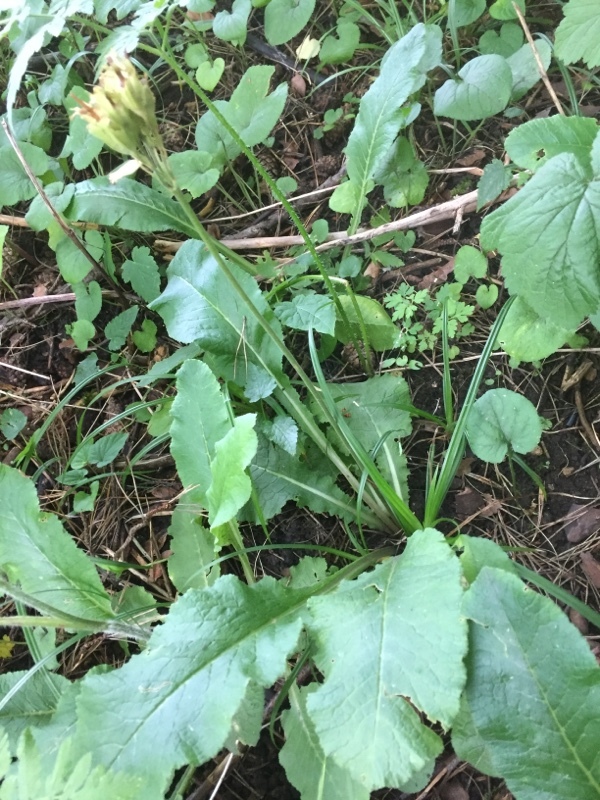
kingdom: Plantae
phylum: Tracheophyta
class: Magnoliopsida
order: Ericales
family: Primulaceae
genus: Primula
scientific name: Primula veris
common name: Cowslip
